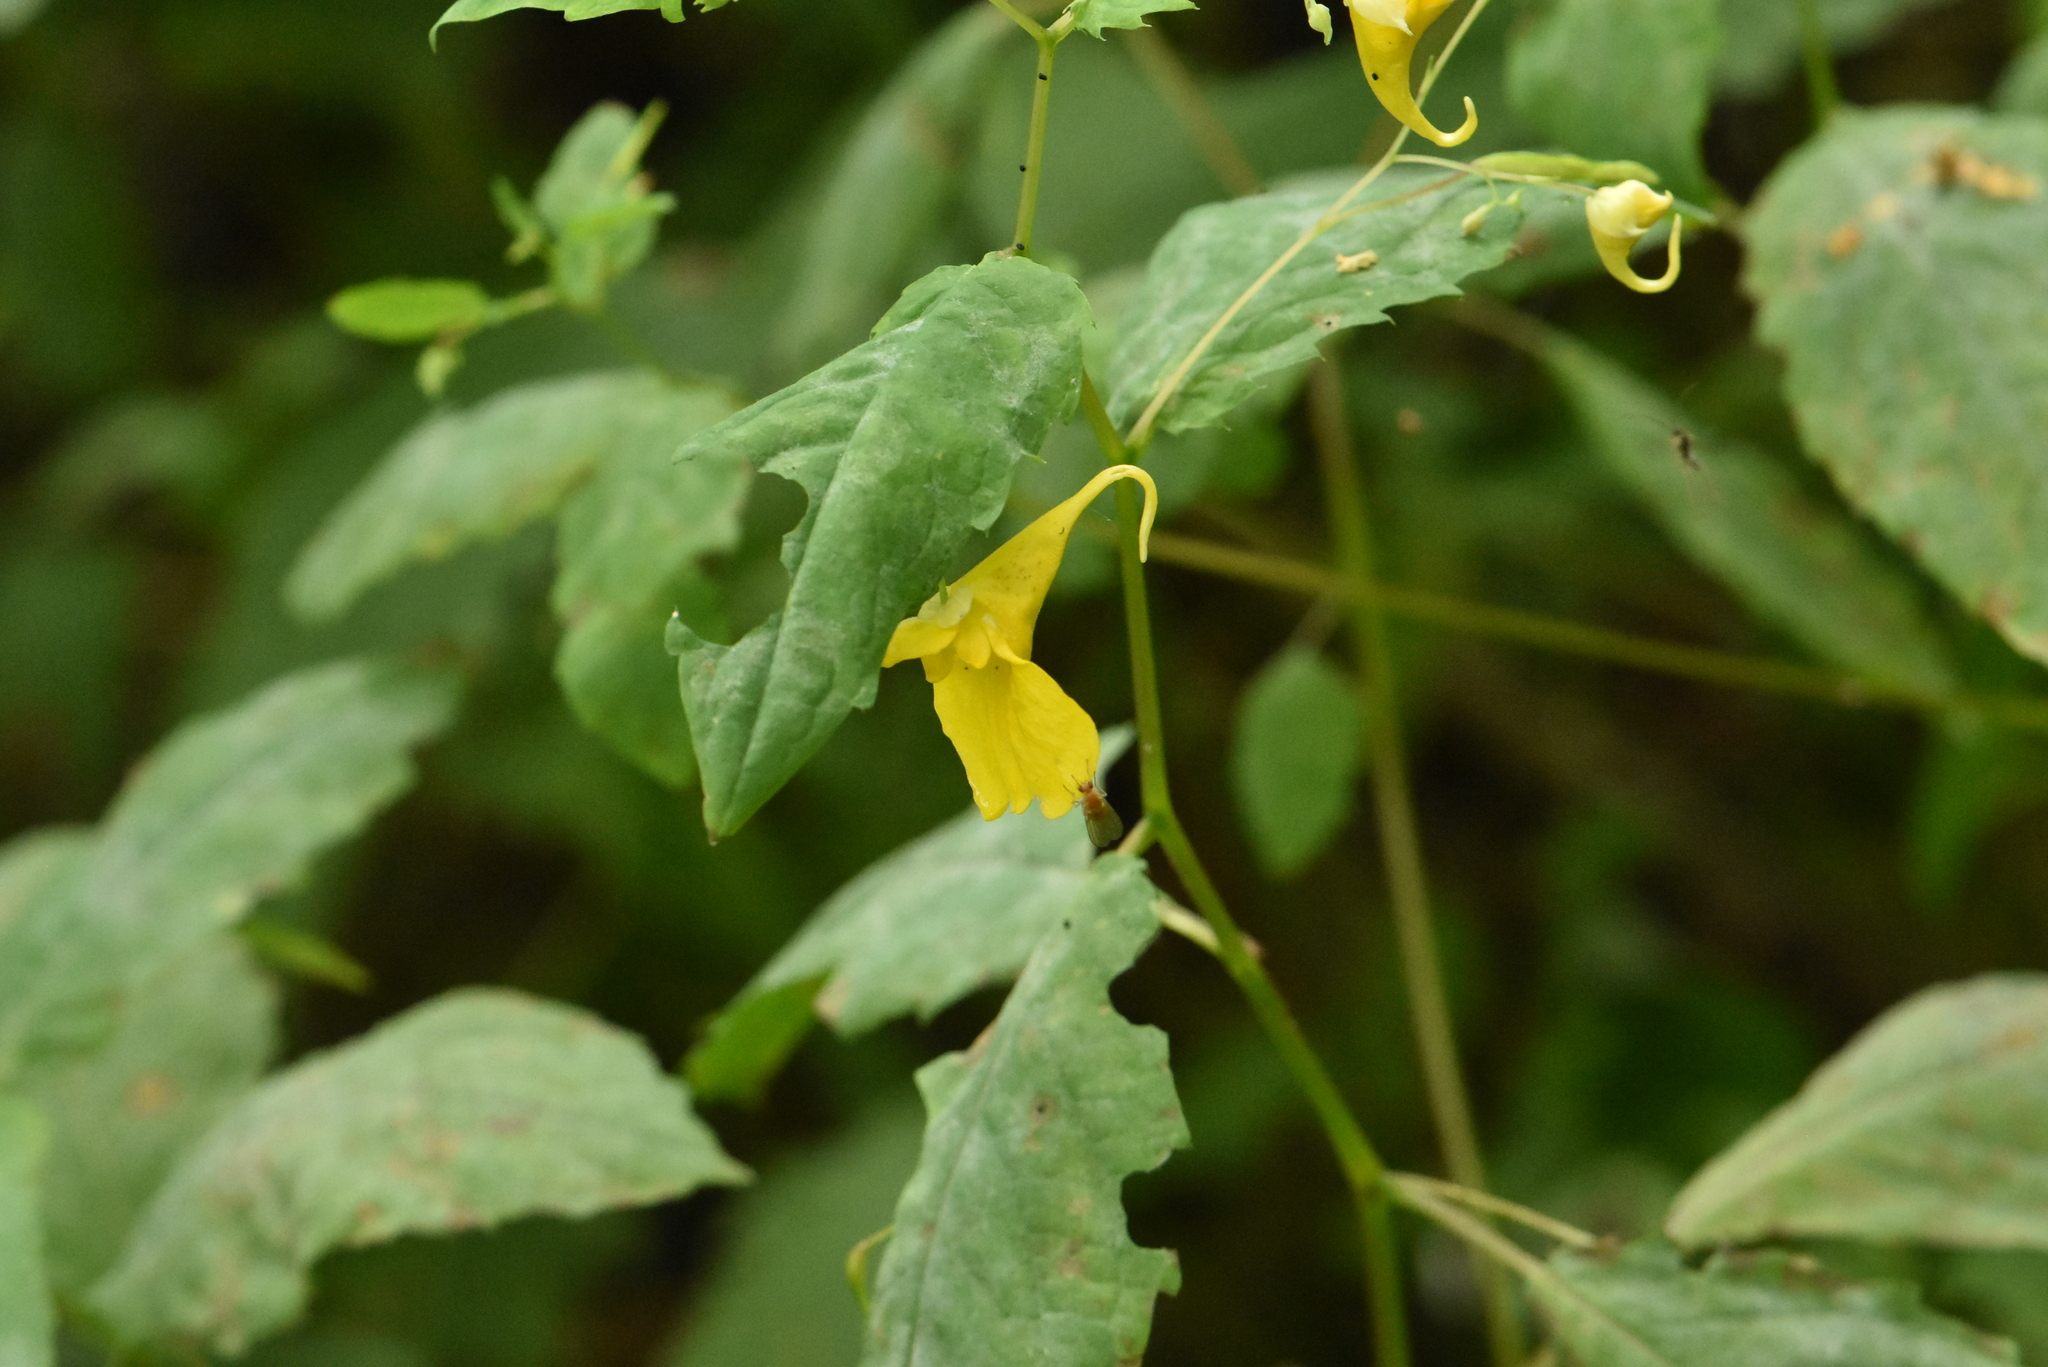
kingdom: Plantae
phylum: Tracheophyta
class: Magnoliopsida
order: Ericales
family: Balsaminaceae
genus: Impatiens
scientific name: Impatiens noli-tangere
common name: Touch-me-not balsam
